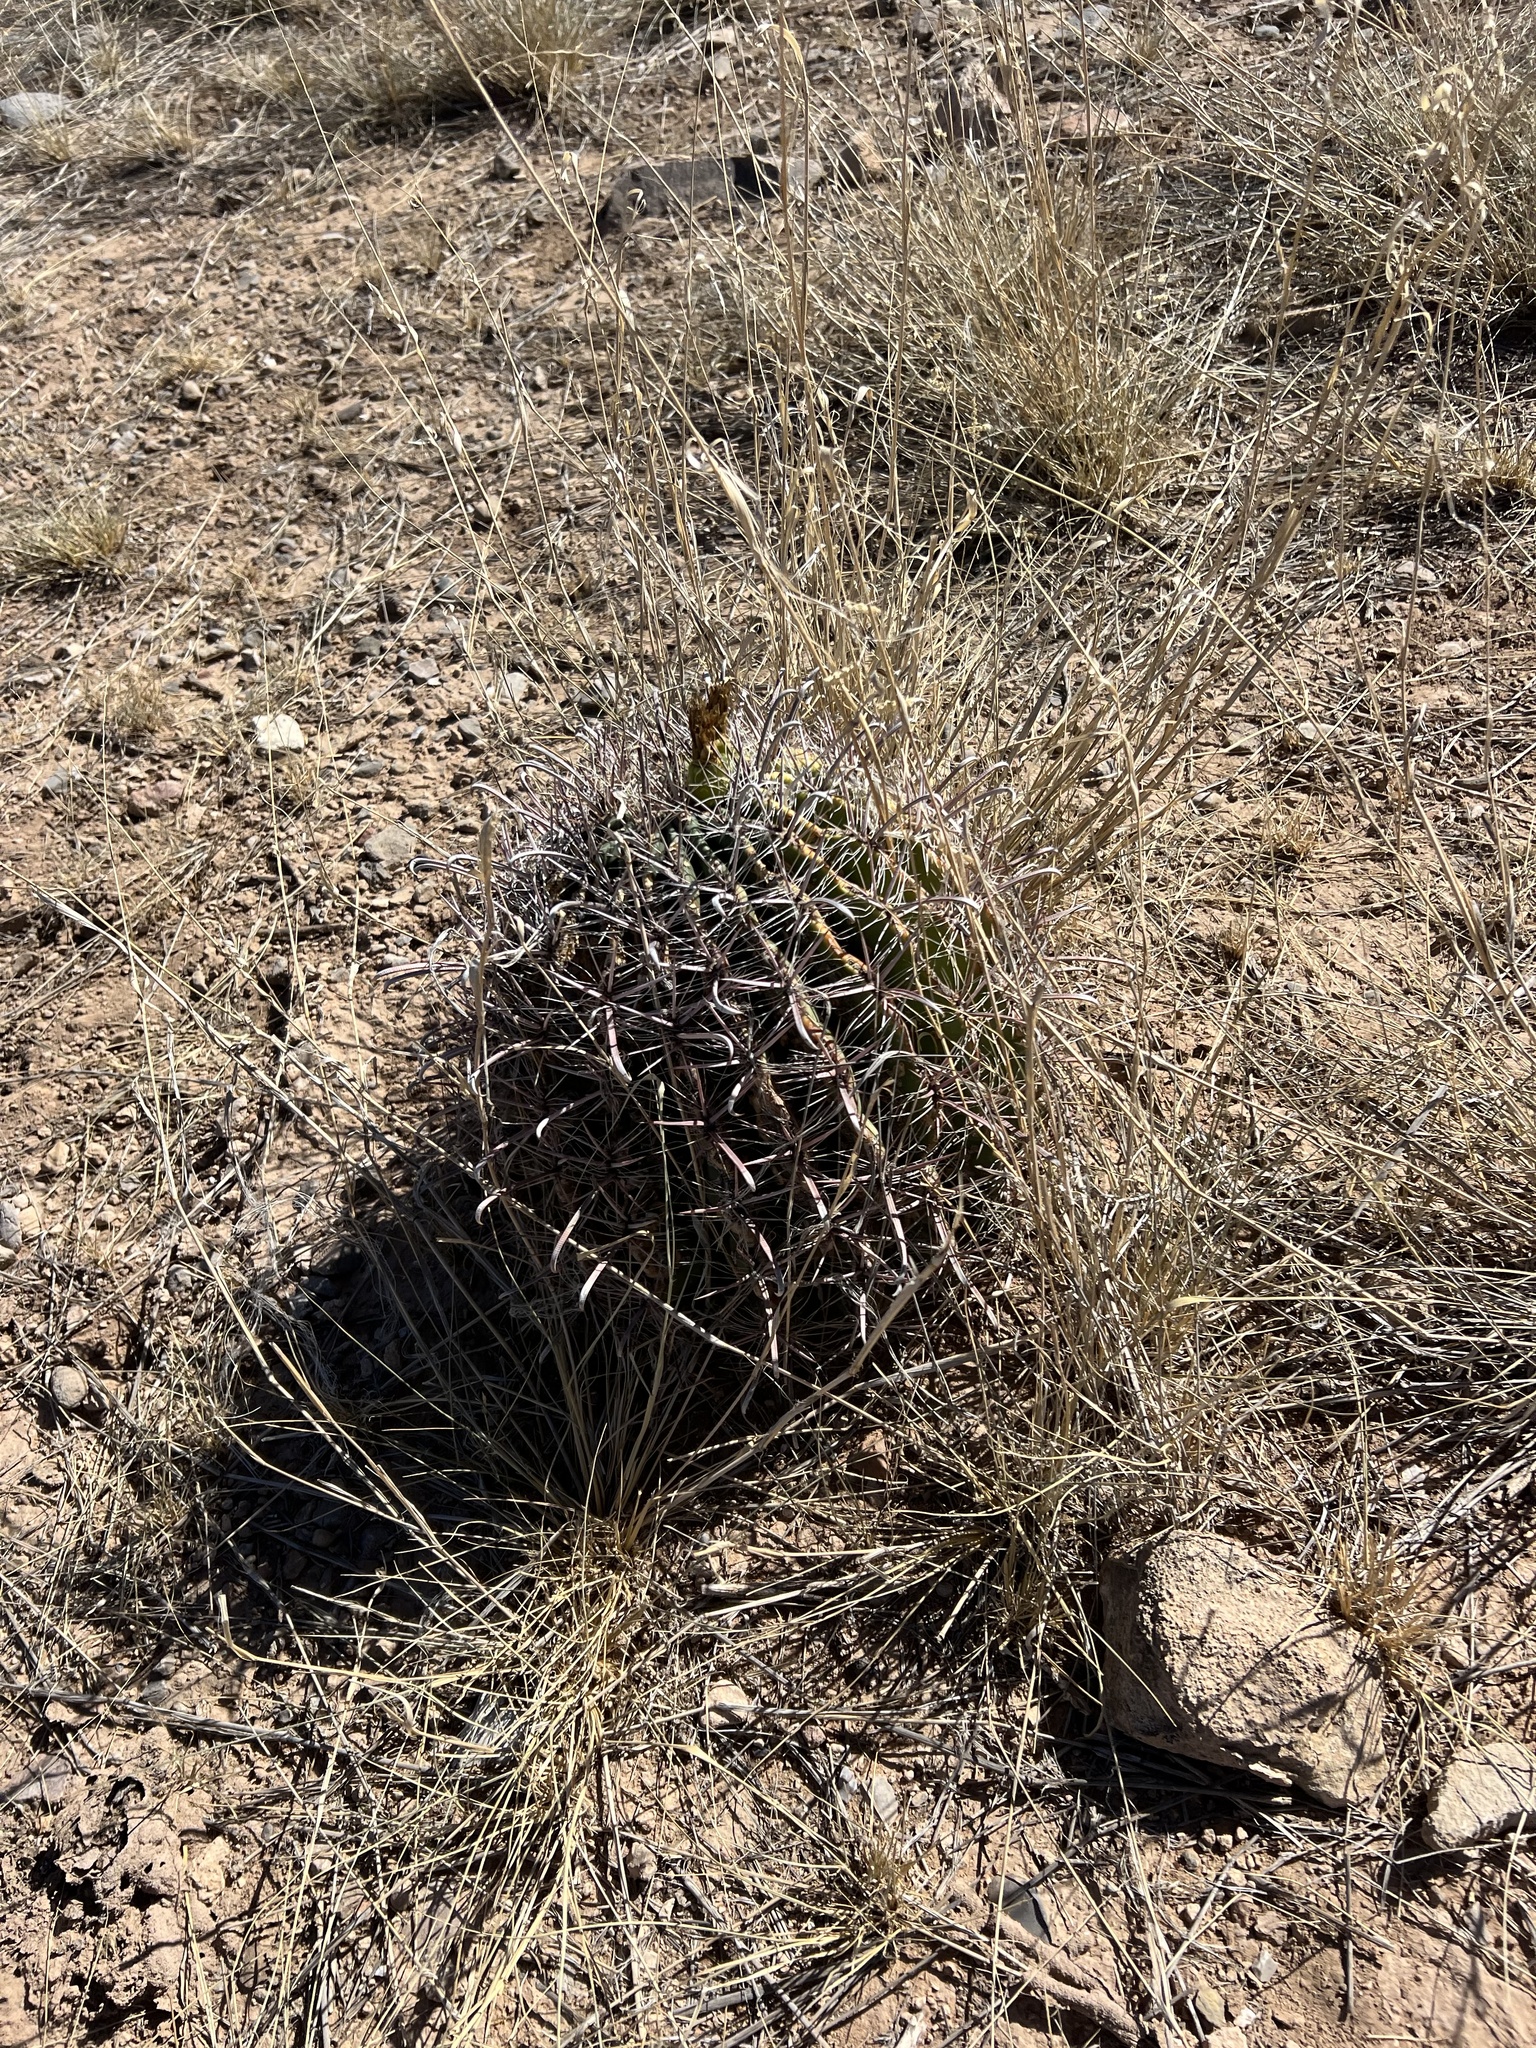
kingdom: Plantae
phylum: Tracheophyta
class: Magnoliopsida
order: Caryophyllales
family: Cactaceae
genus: Ferocactus
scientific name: Ferocactus wislizeni
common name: Candy barrel cactus
